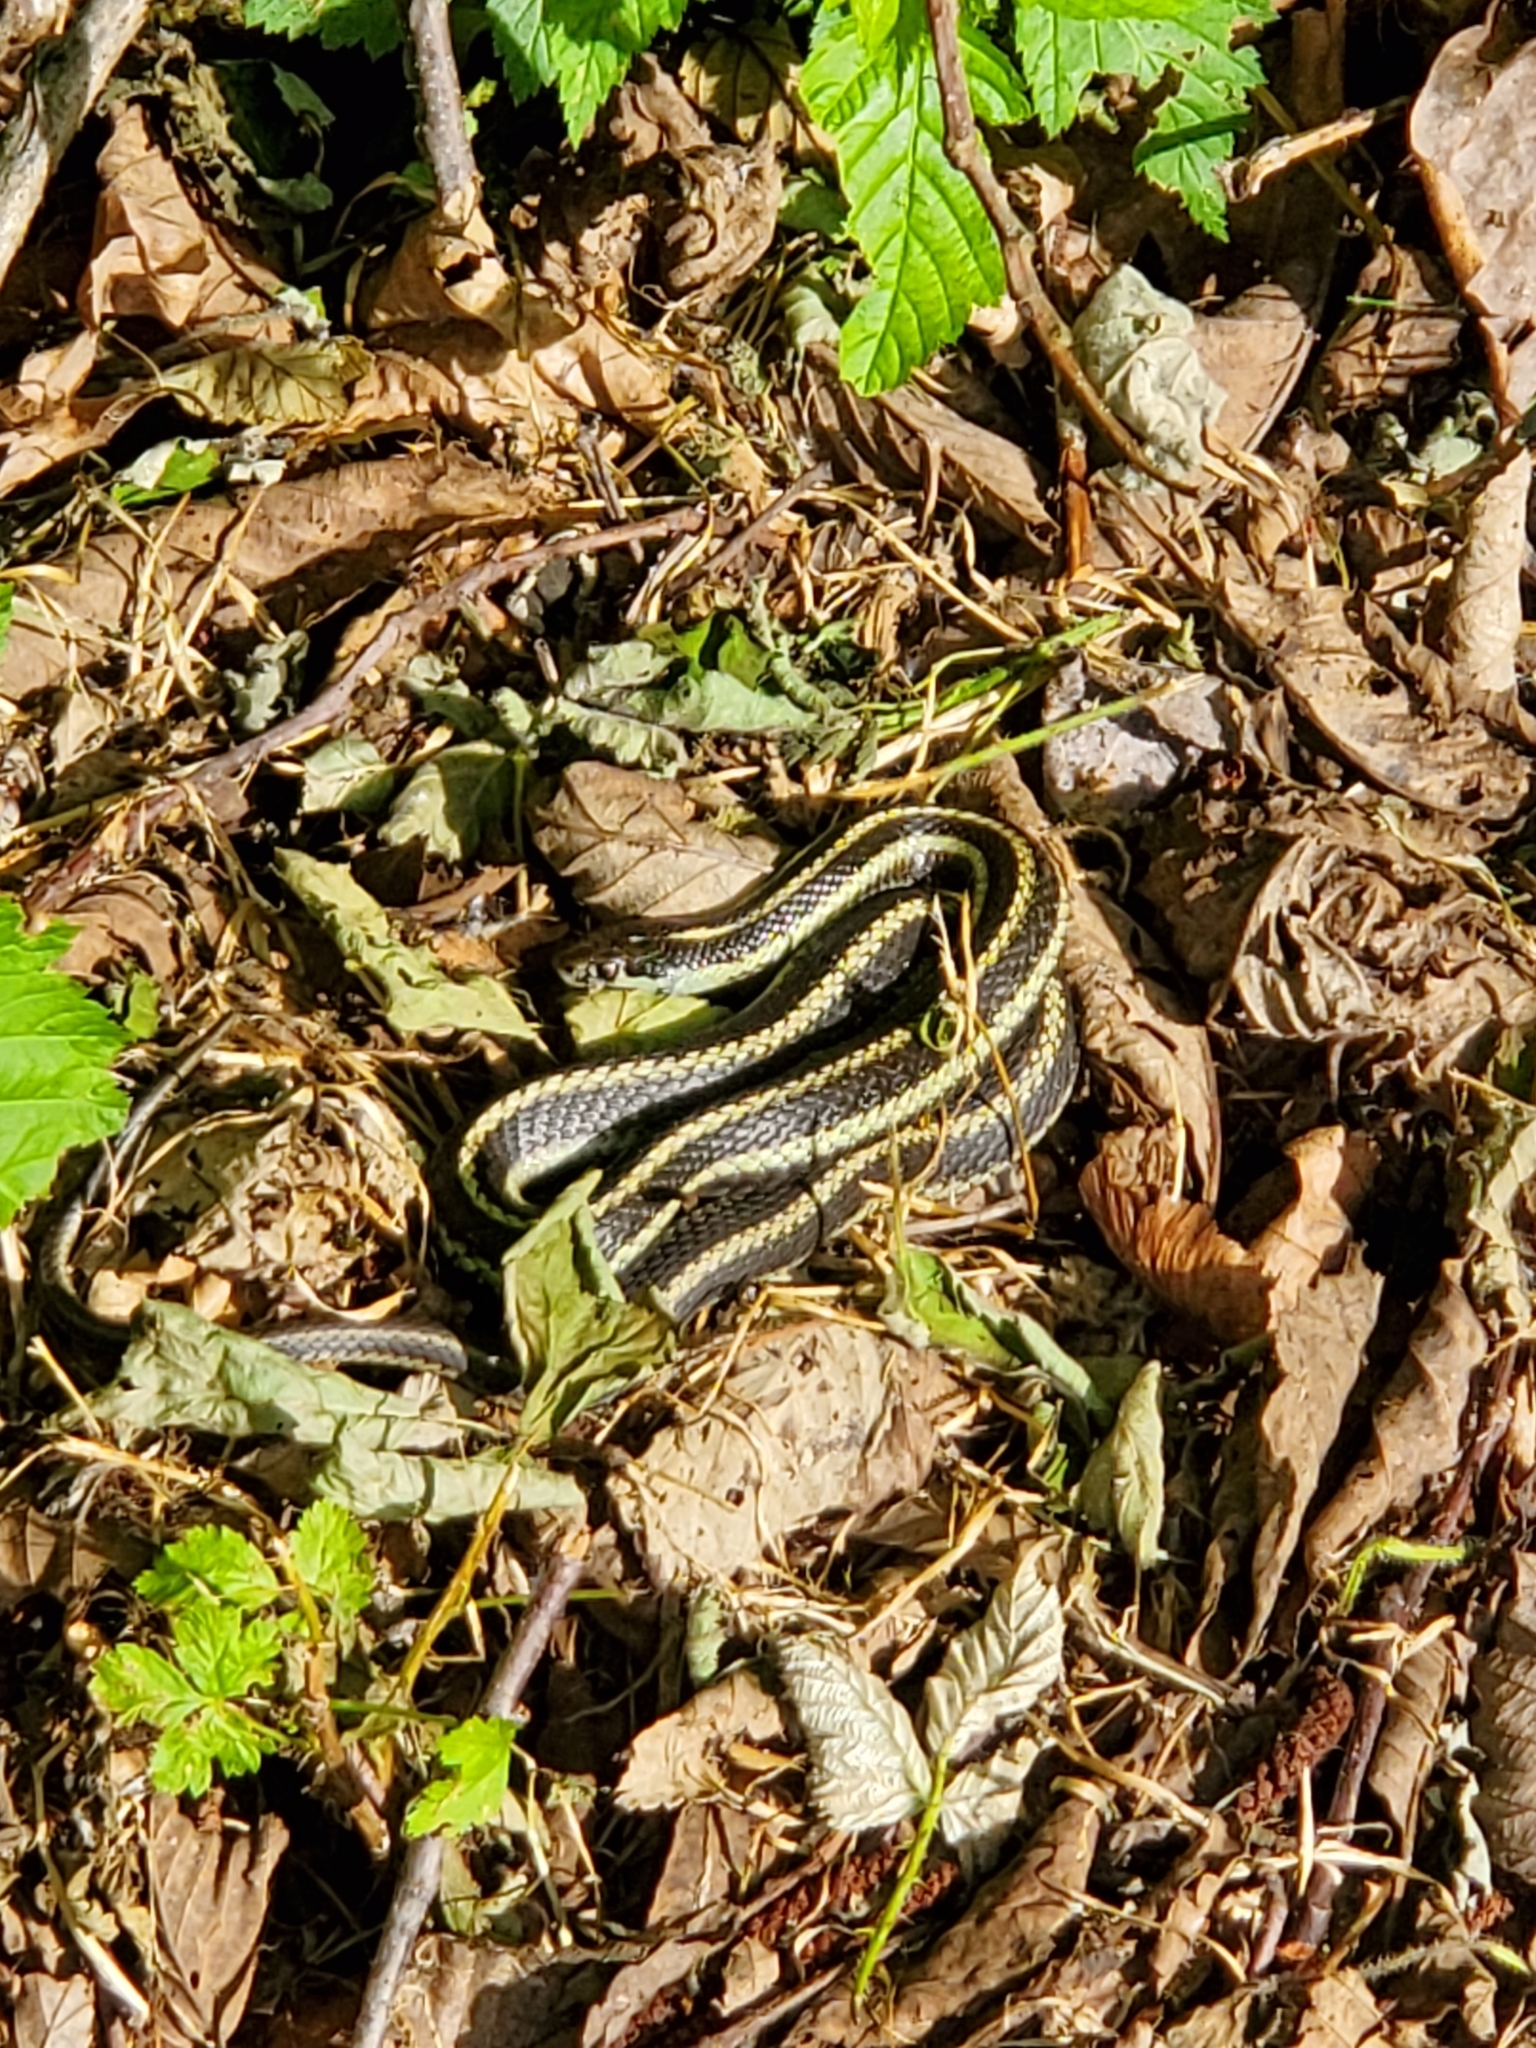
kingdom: Animalia
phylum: Chordata
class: Squamata
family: Colubridae
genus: Thamnophis
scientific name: Thamnophis ordinoides
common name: Northwestern garter snake
